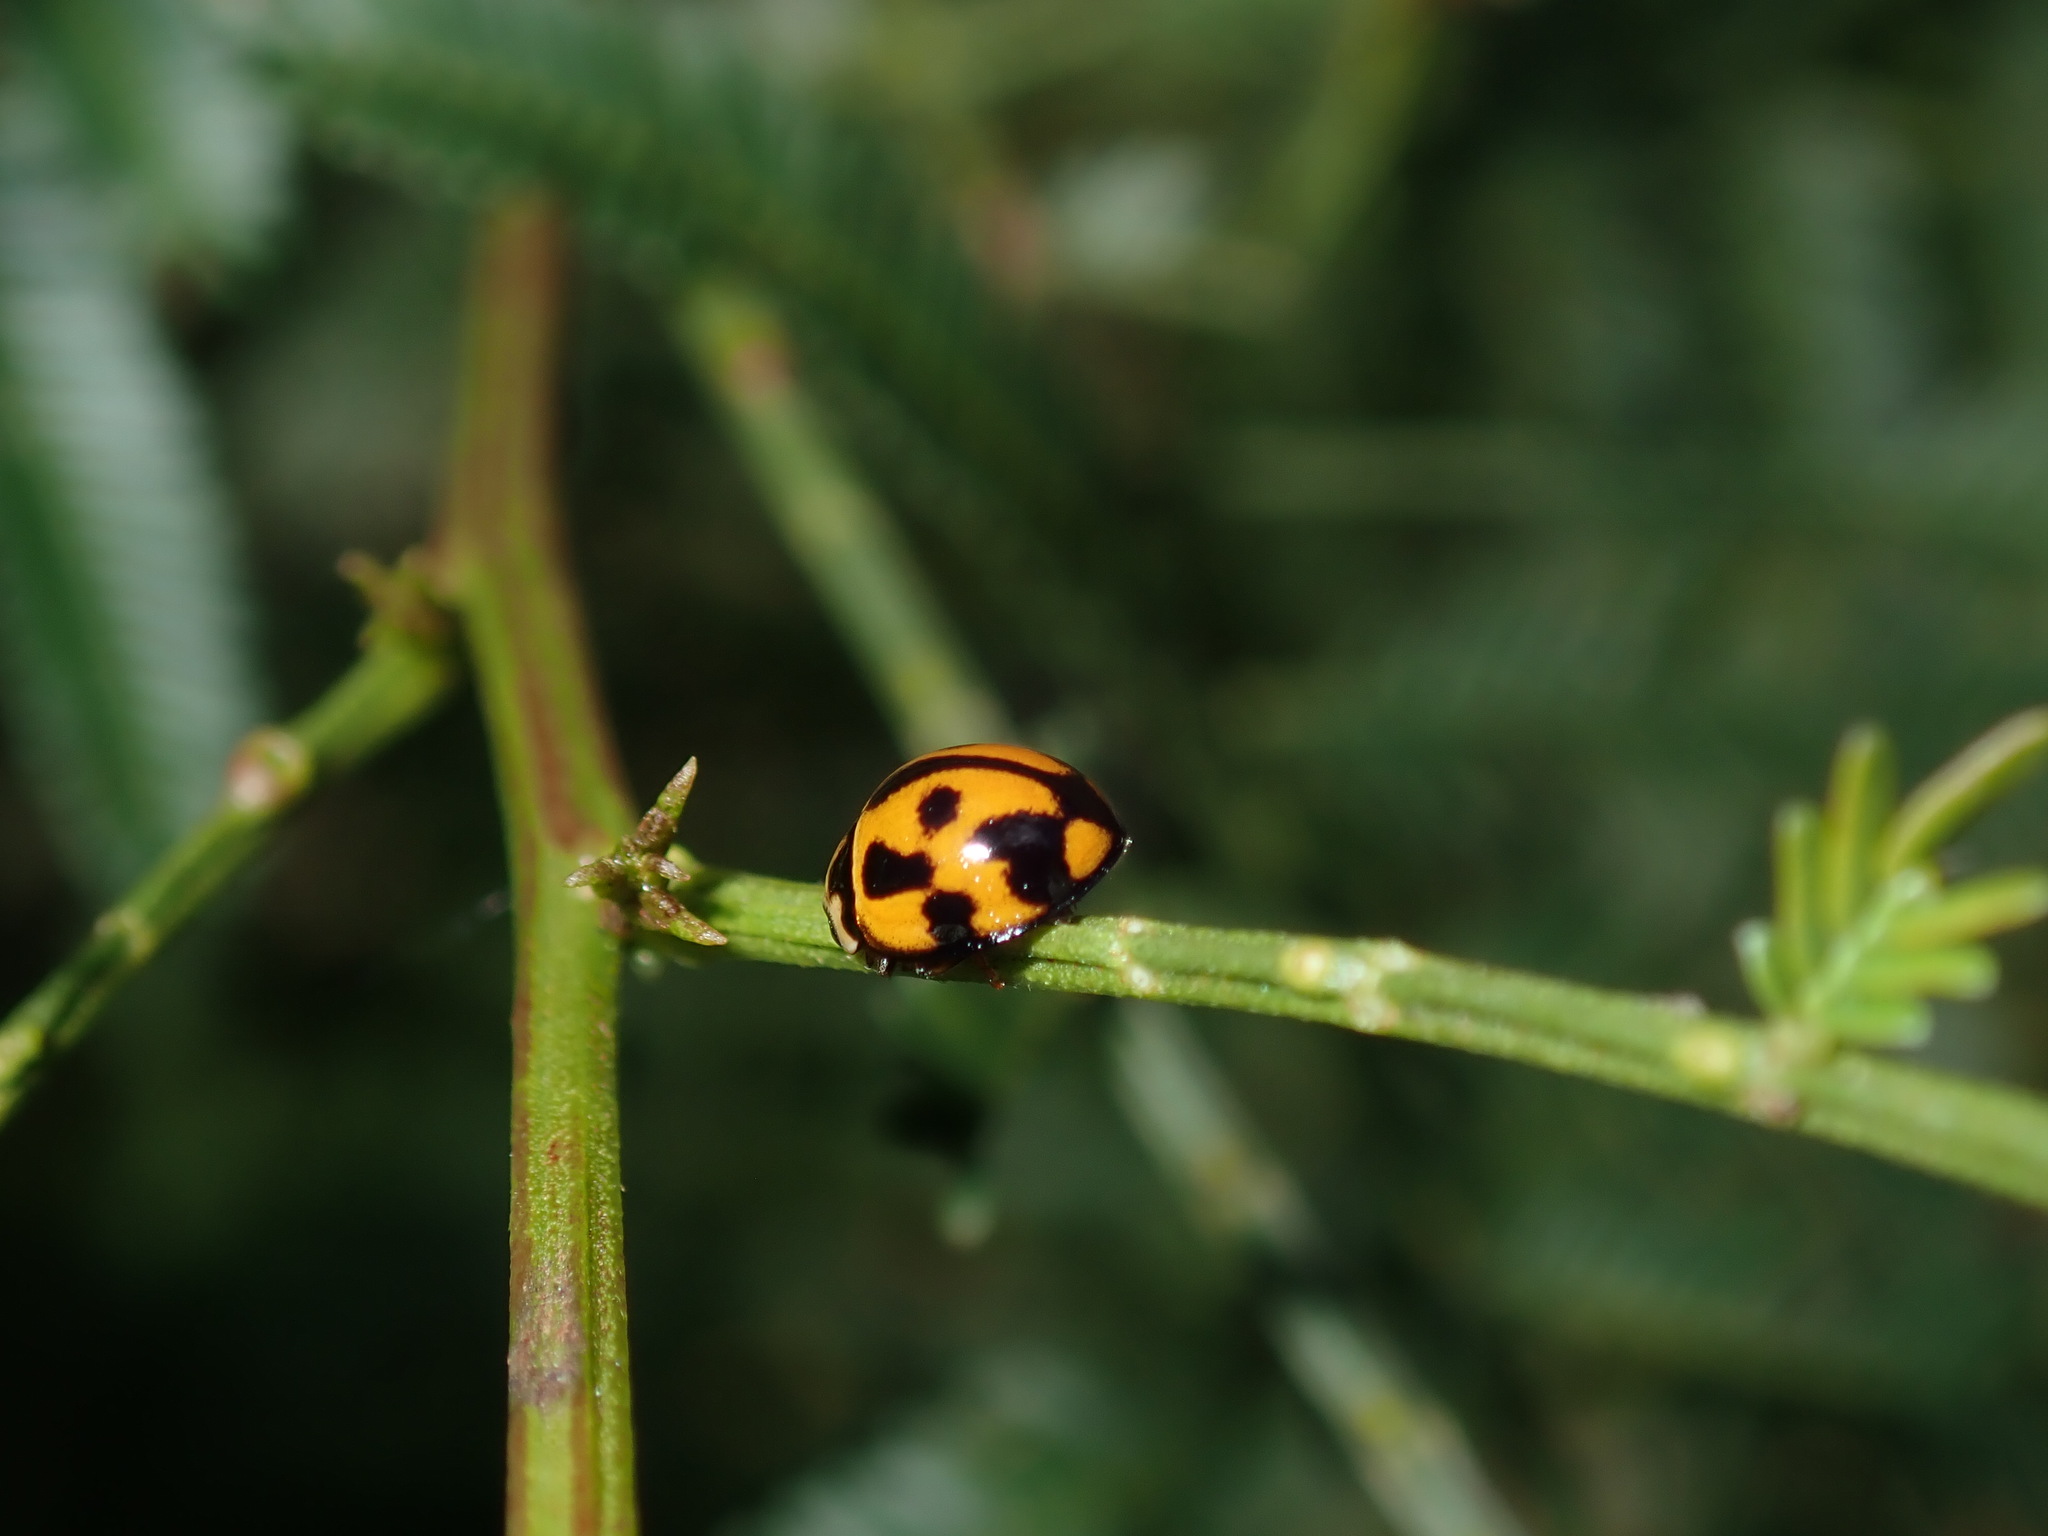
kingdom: Animalia
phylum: Arthropoda
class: Insecta
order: Coleoptera
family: Coccinellidae
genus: Coelophora
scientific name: Coelophora inaequalis
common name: Common australian lady beetle
